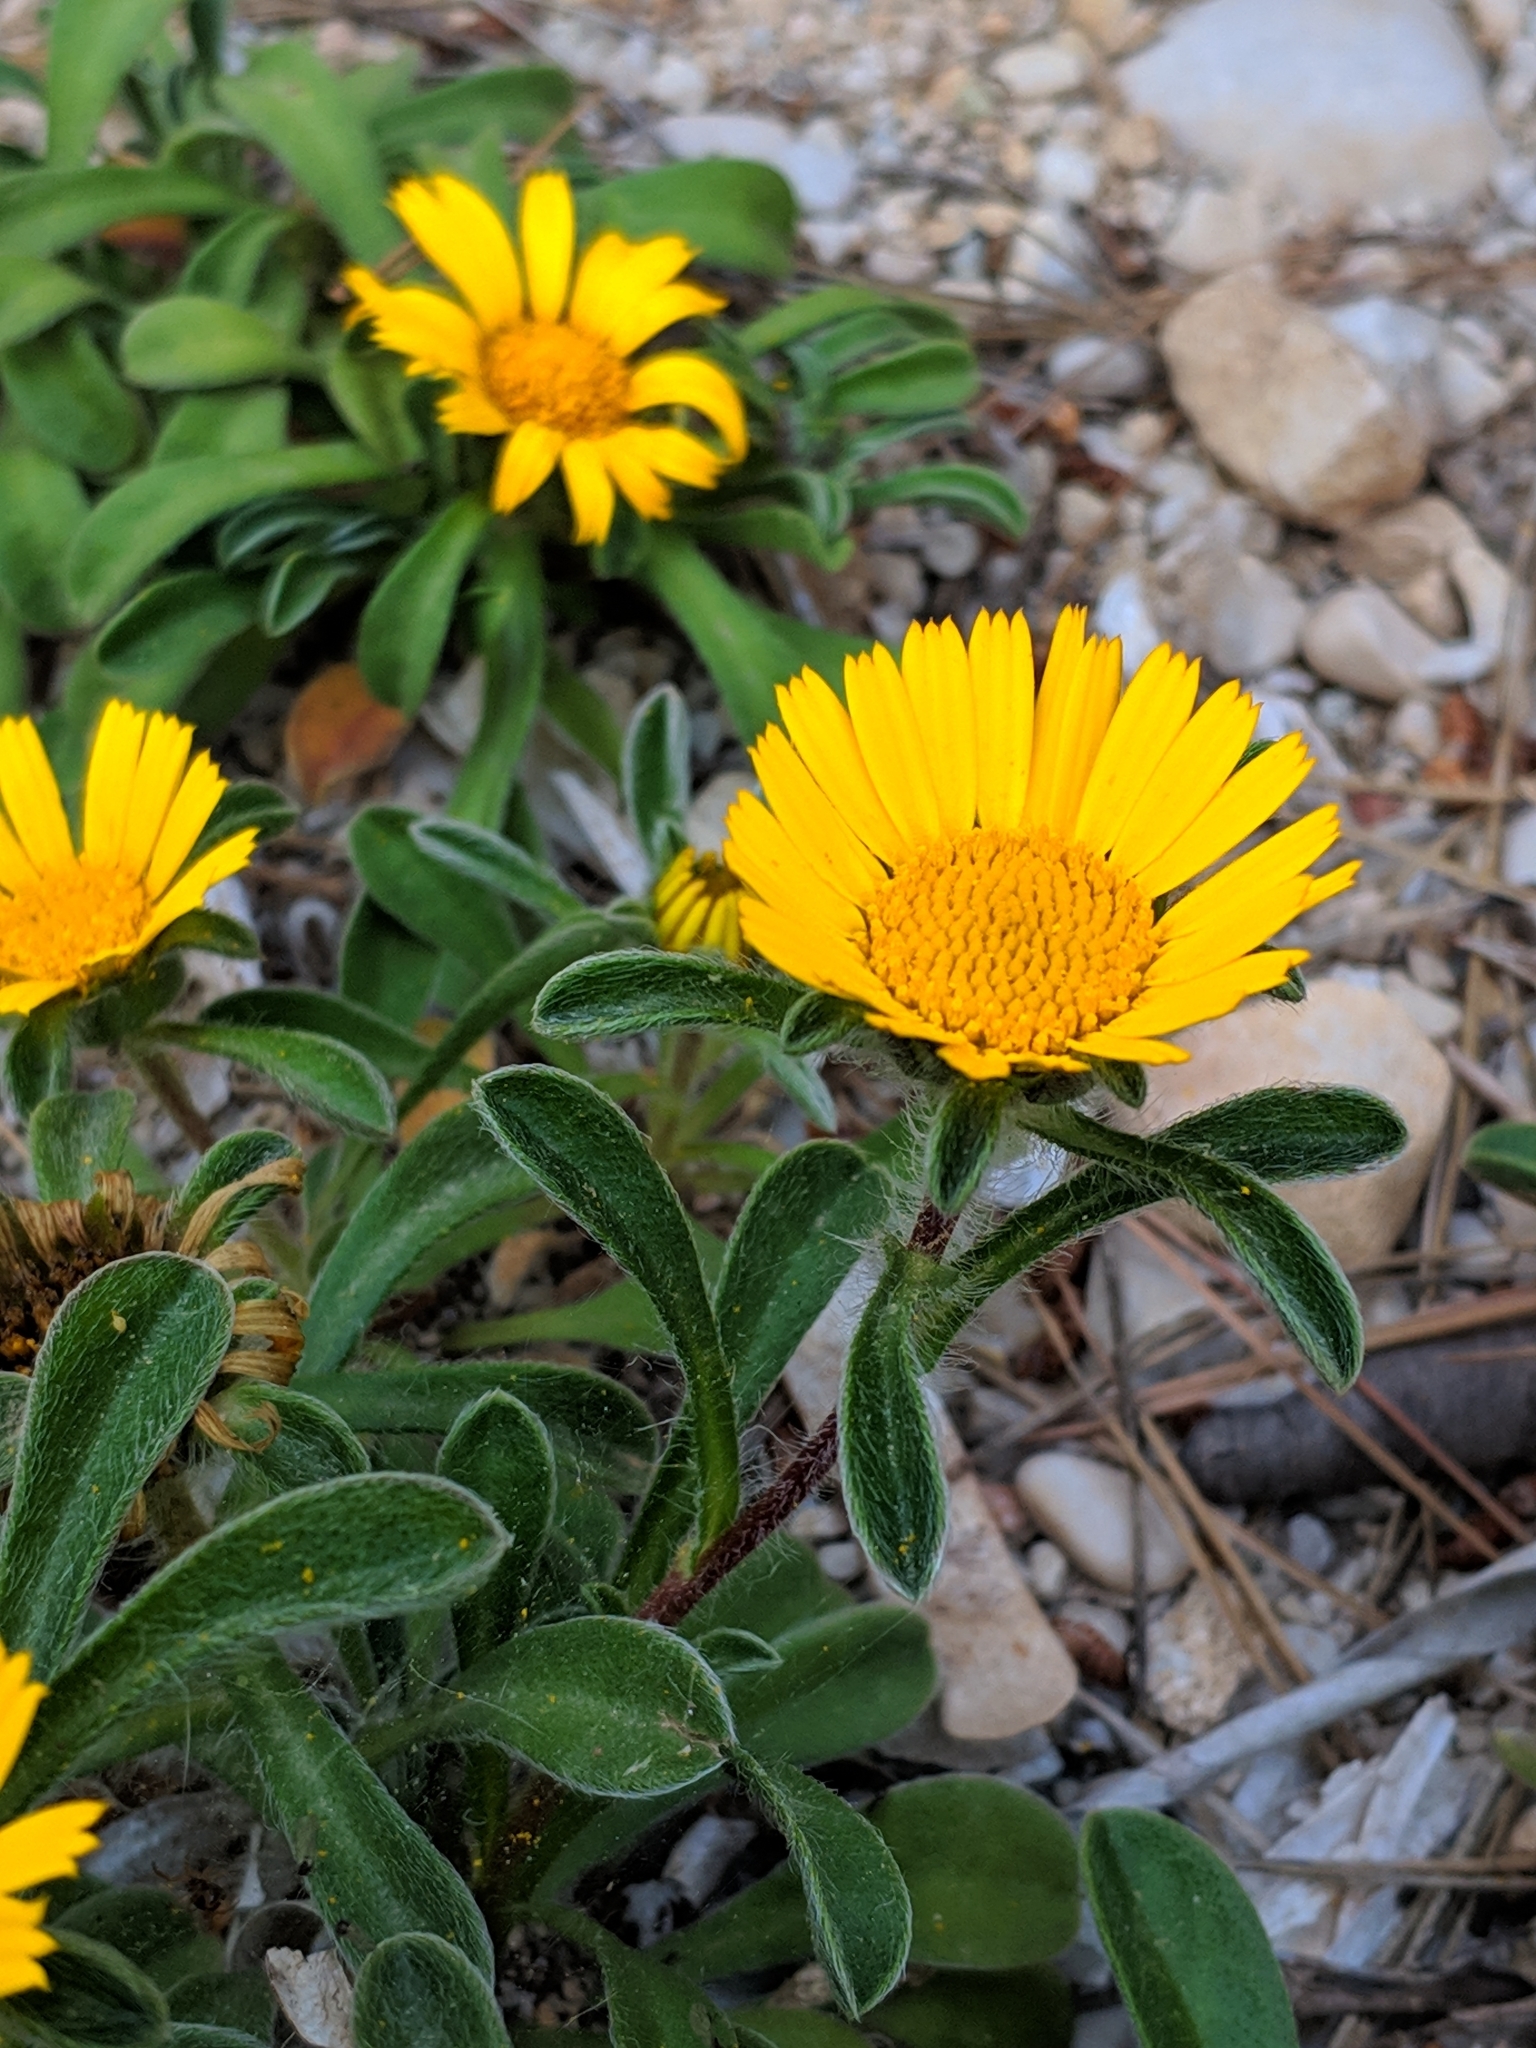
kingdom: Plantae
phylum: Tracheophyta
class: Magnoliopsida
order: Asterales
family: Asteraceae
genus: Pallenis
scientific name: Pallenis maritima
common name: Golden coin daisy
